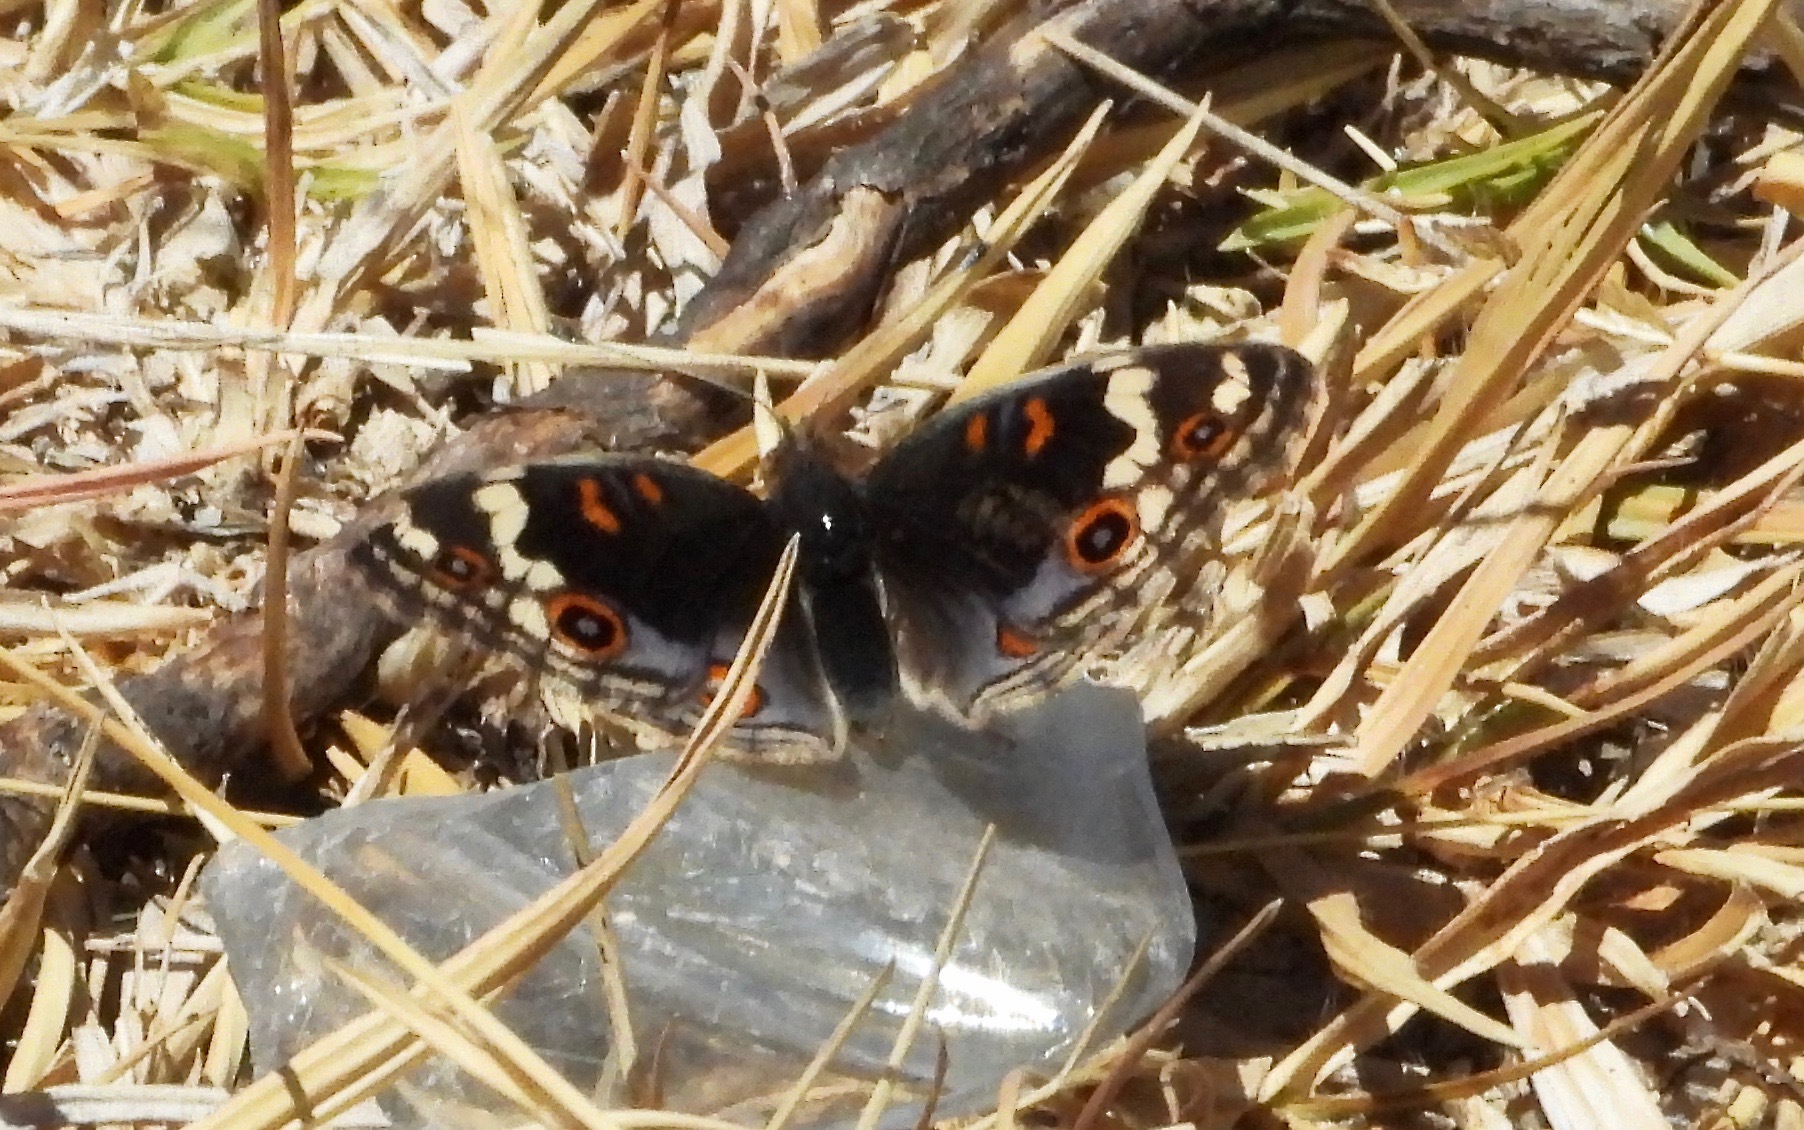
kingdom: Animalia
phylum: Arthropoda
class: Insecta
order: Lepidoptera
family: Nymphalidae
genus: Junonia
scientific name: Junonia orithya
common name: Blue pansy
